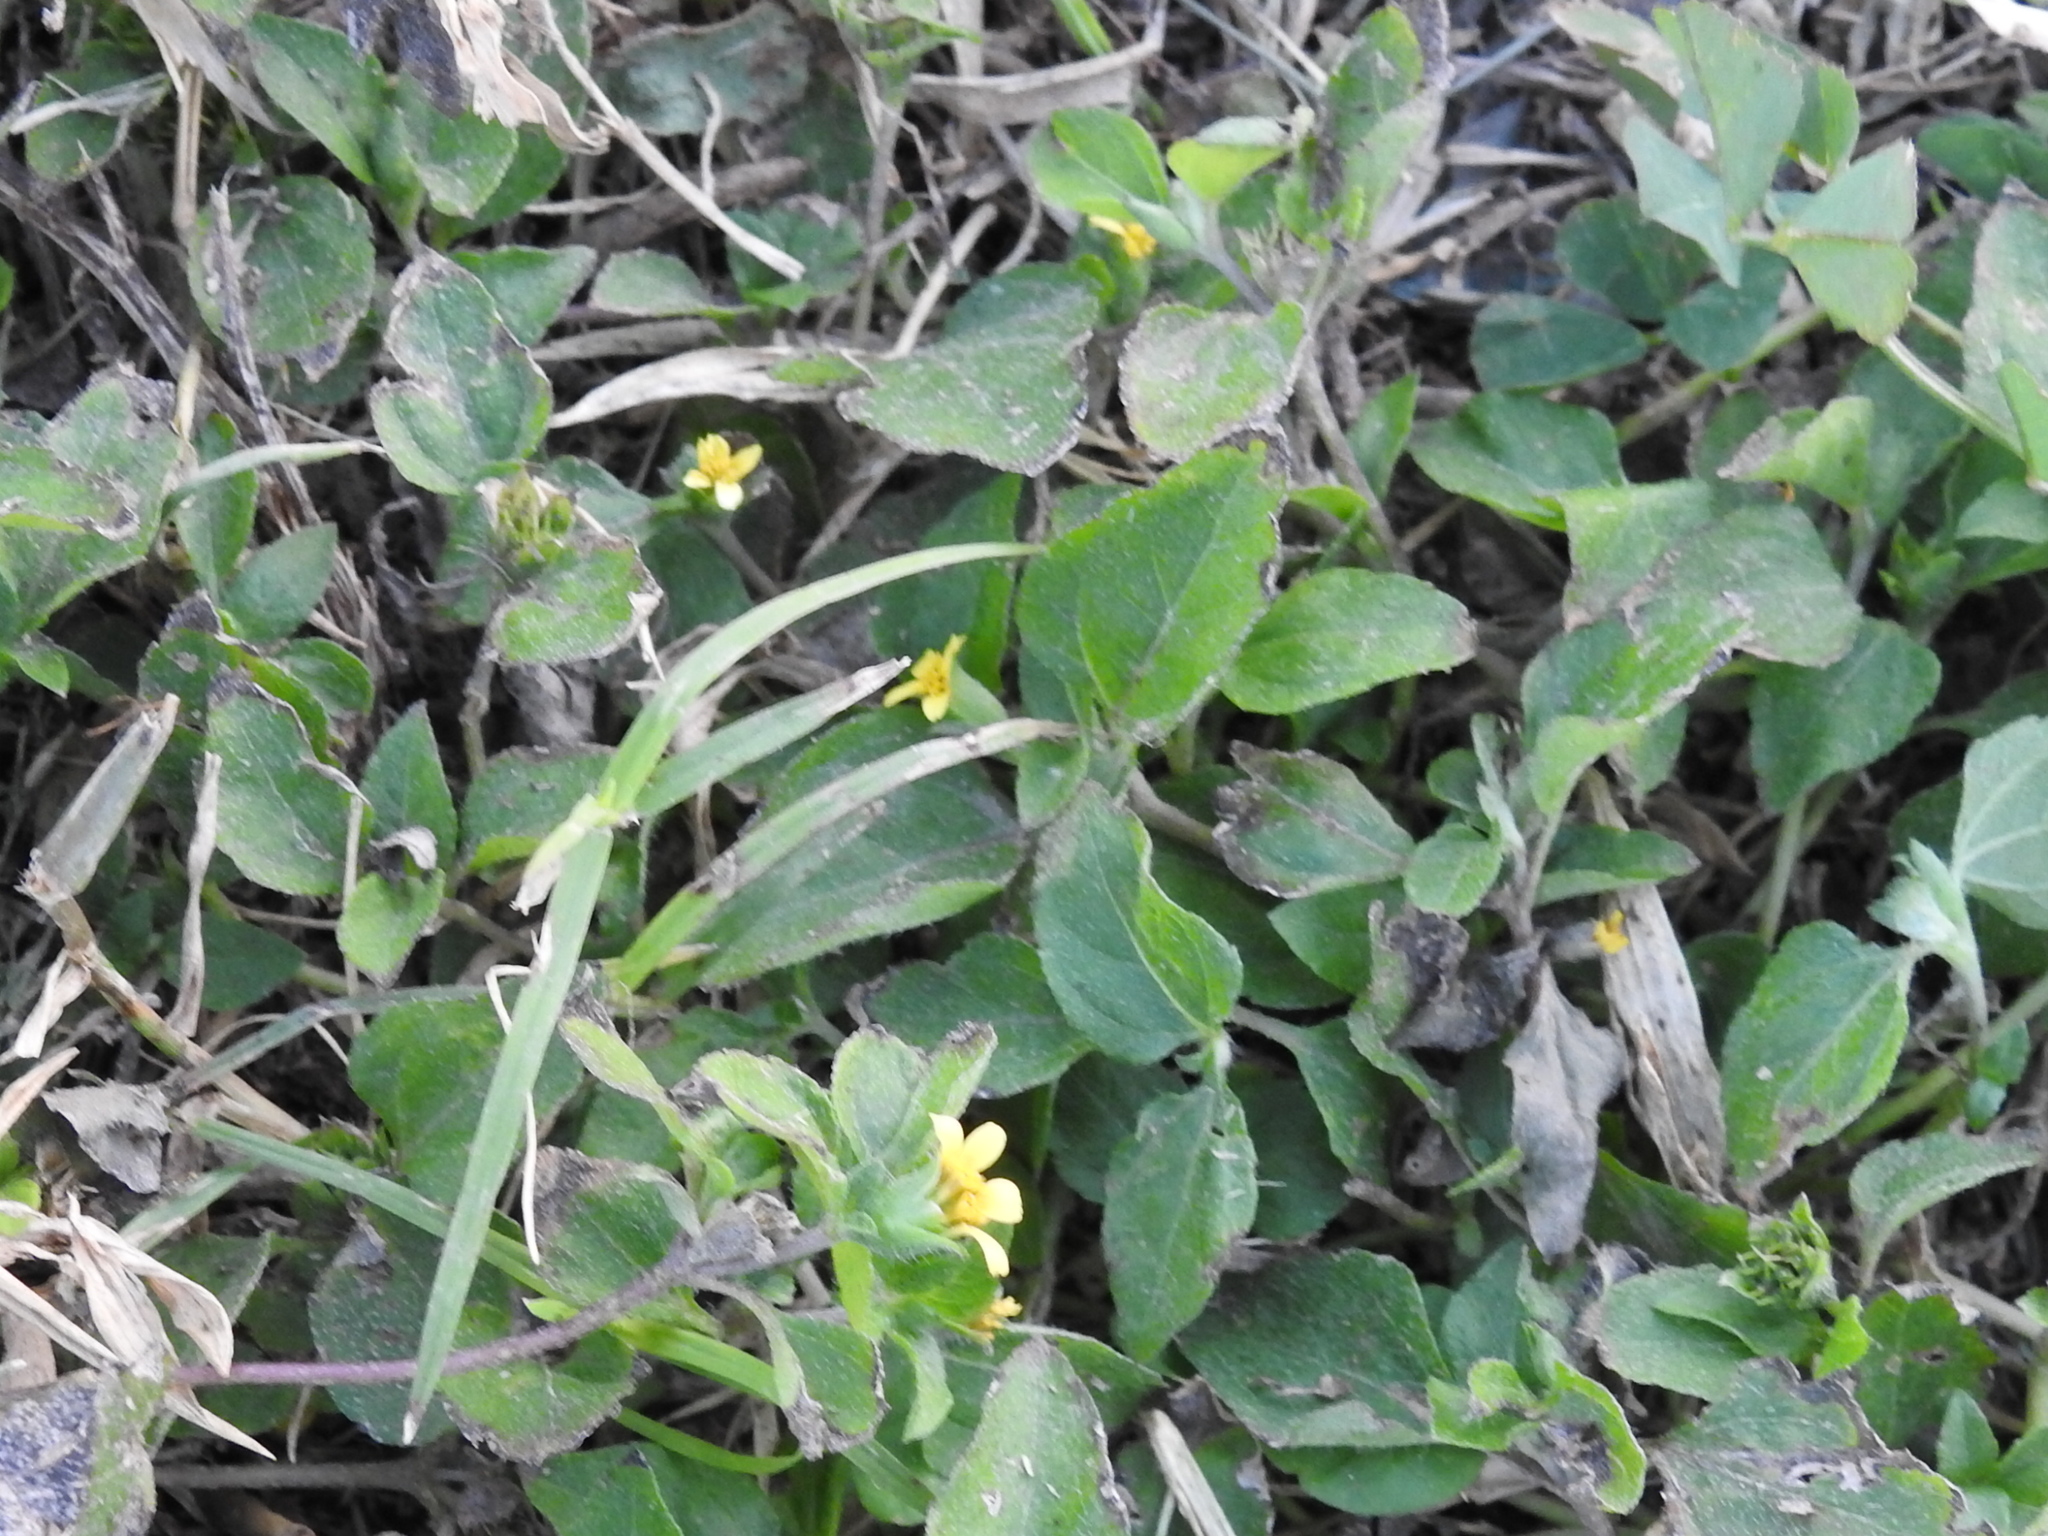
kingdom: Plantae
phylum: Tracheophyta
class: Magnoliopsida
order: Asterales
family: Asteraceae
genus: Calyptocarpus
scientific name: Calyptocarpus vialis
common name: Straggler daisy
